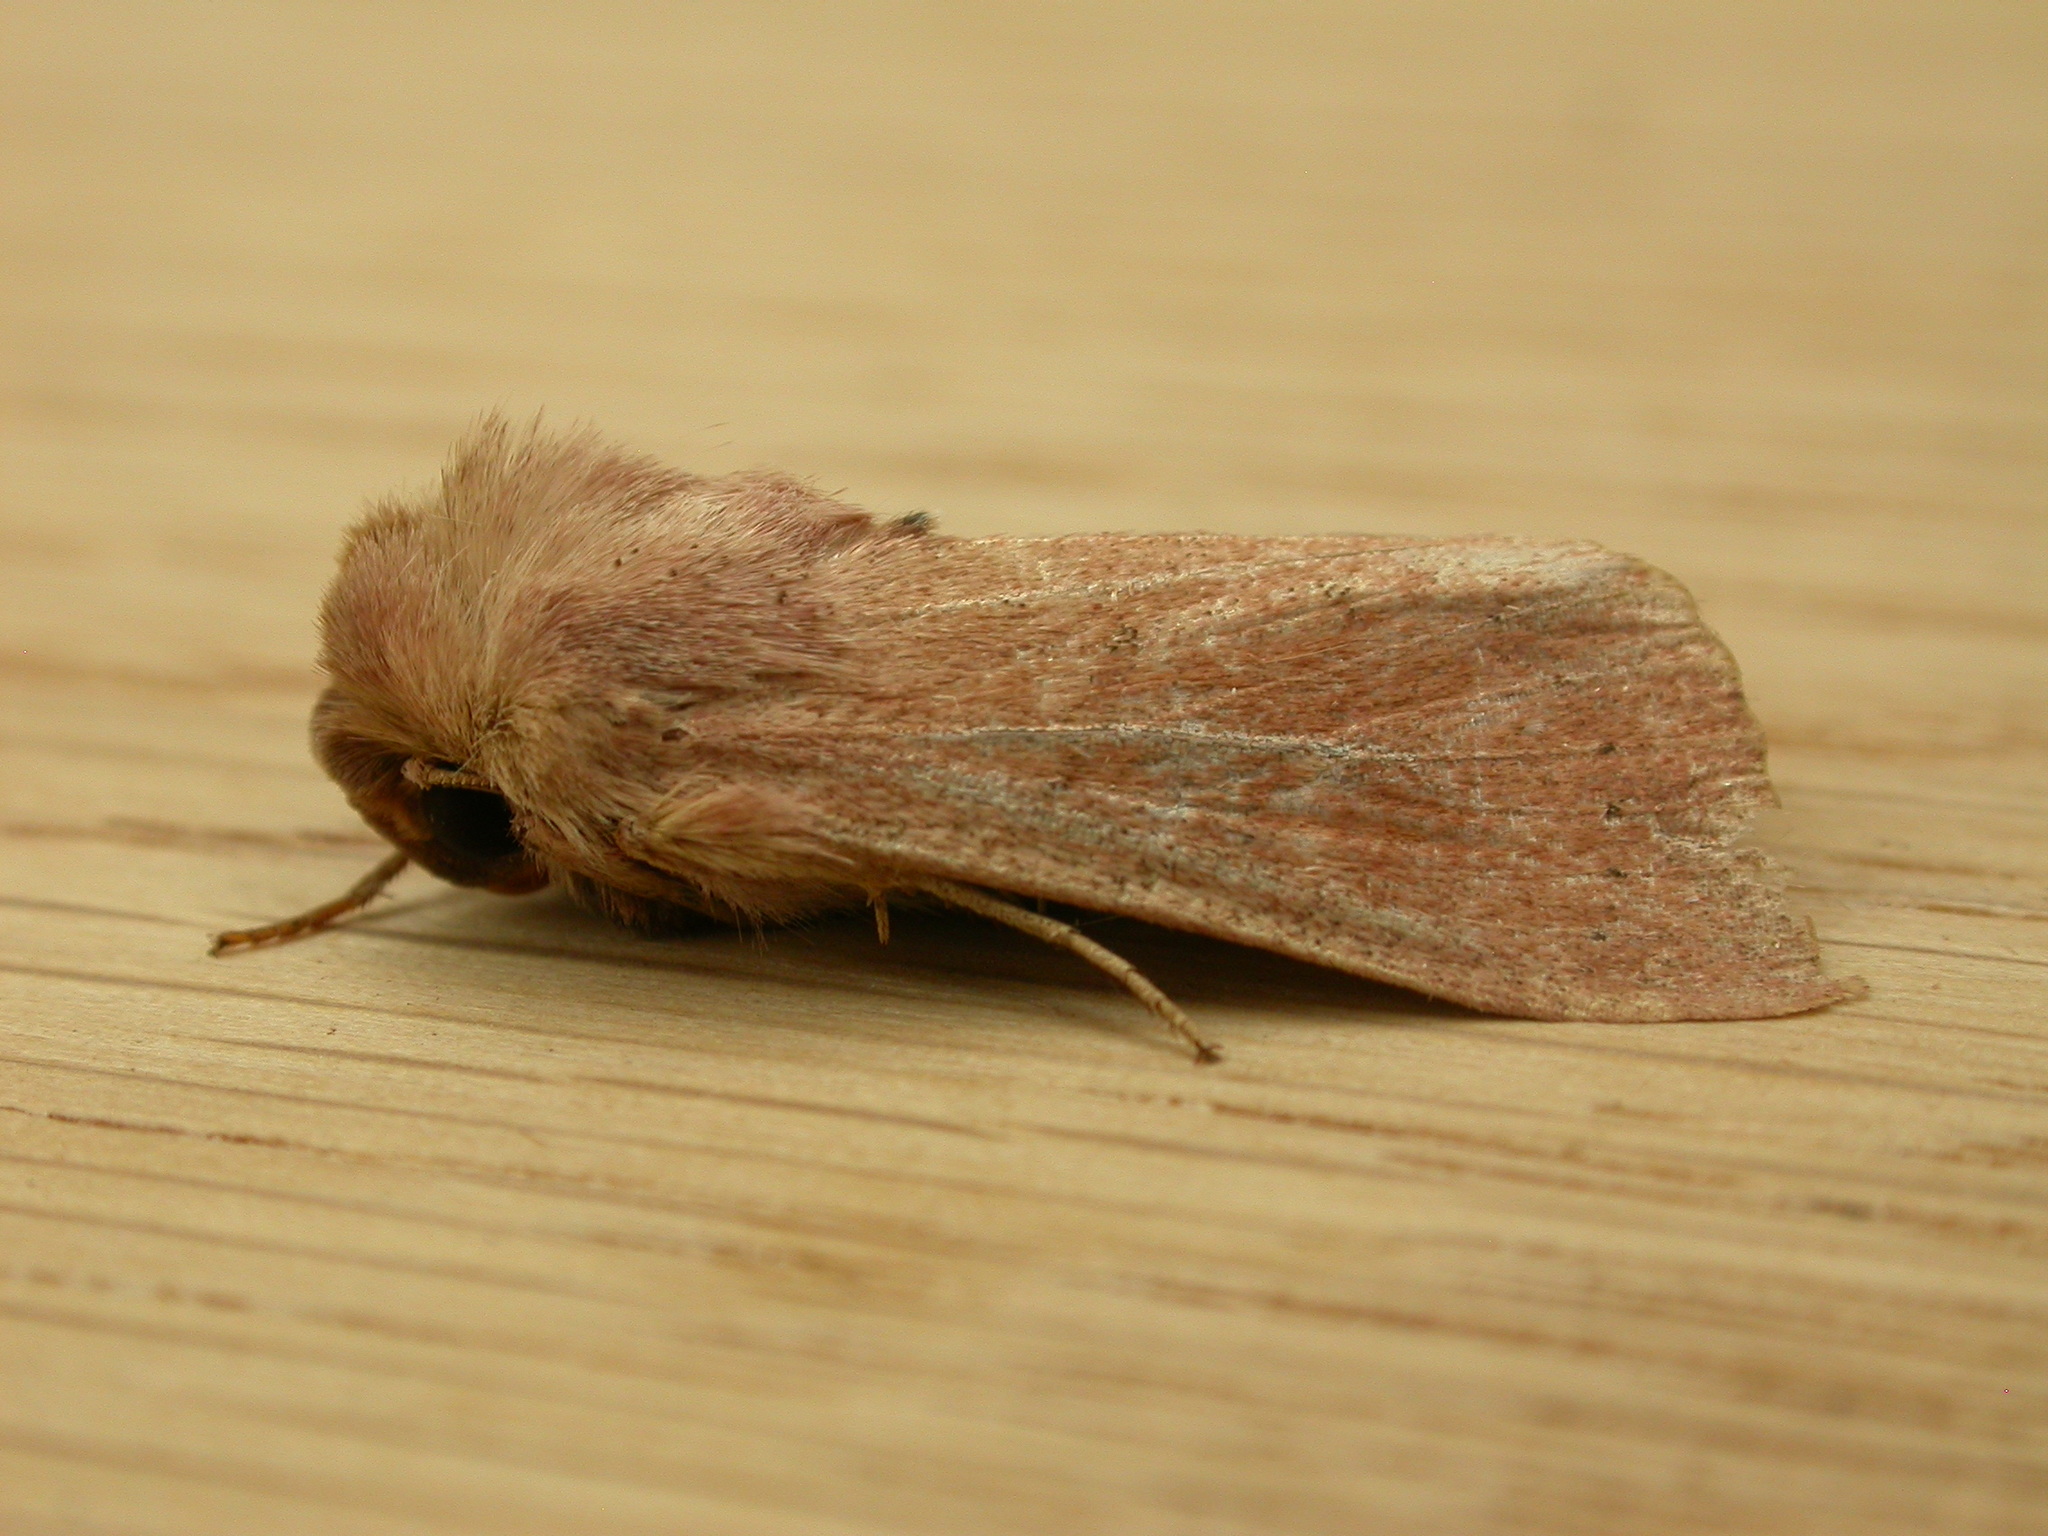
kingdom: Animalia
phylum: Arthropoda
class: Insecta
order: Lepidoptera
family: Noctuidae
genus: Mythimna
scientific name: Mythimna ferrago
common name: Clay
